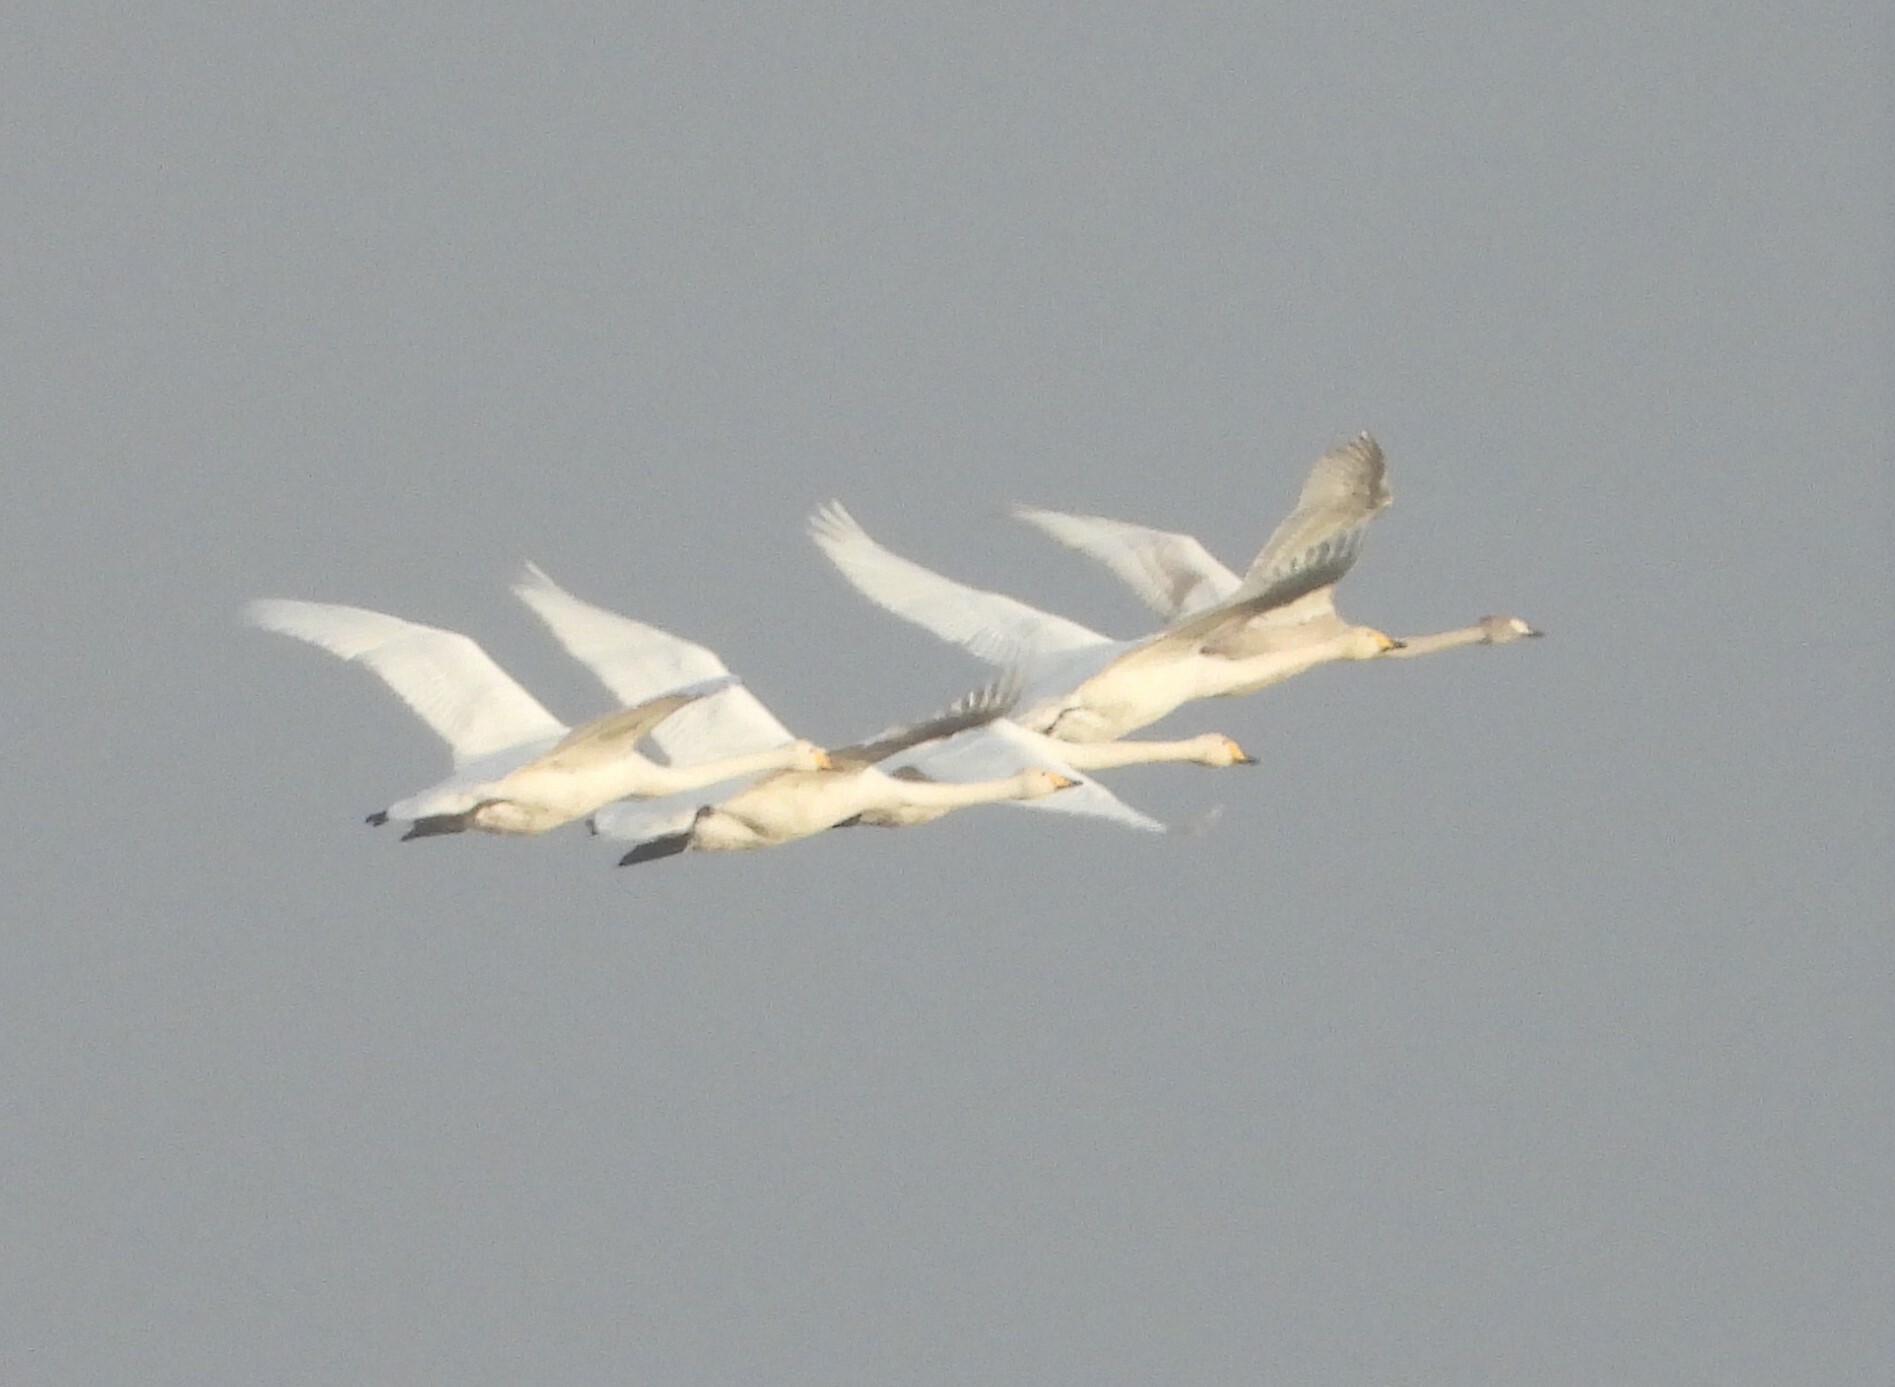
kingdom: Animalia
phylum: Chordata
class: Aves
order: Anseriformes
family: Anatidae
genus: Cygnus
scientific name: Cygnus cygnus
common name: Whooper swan
